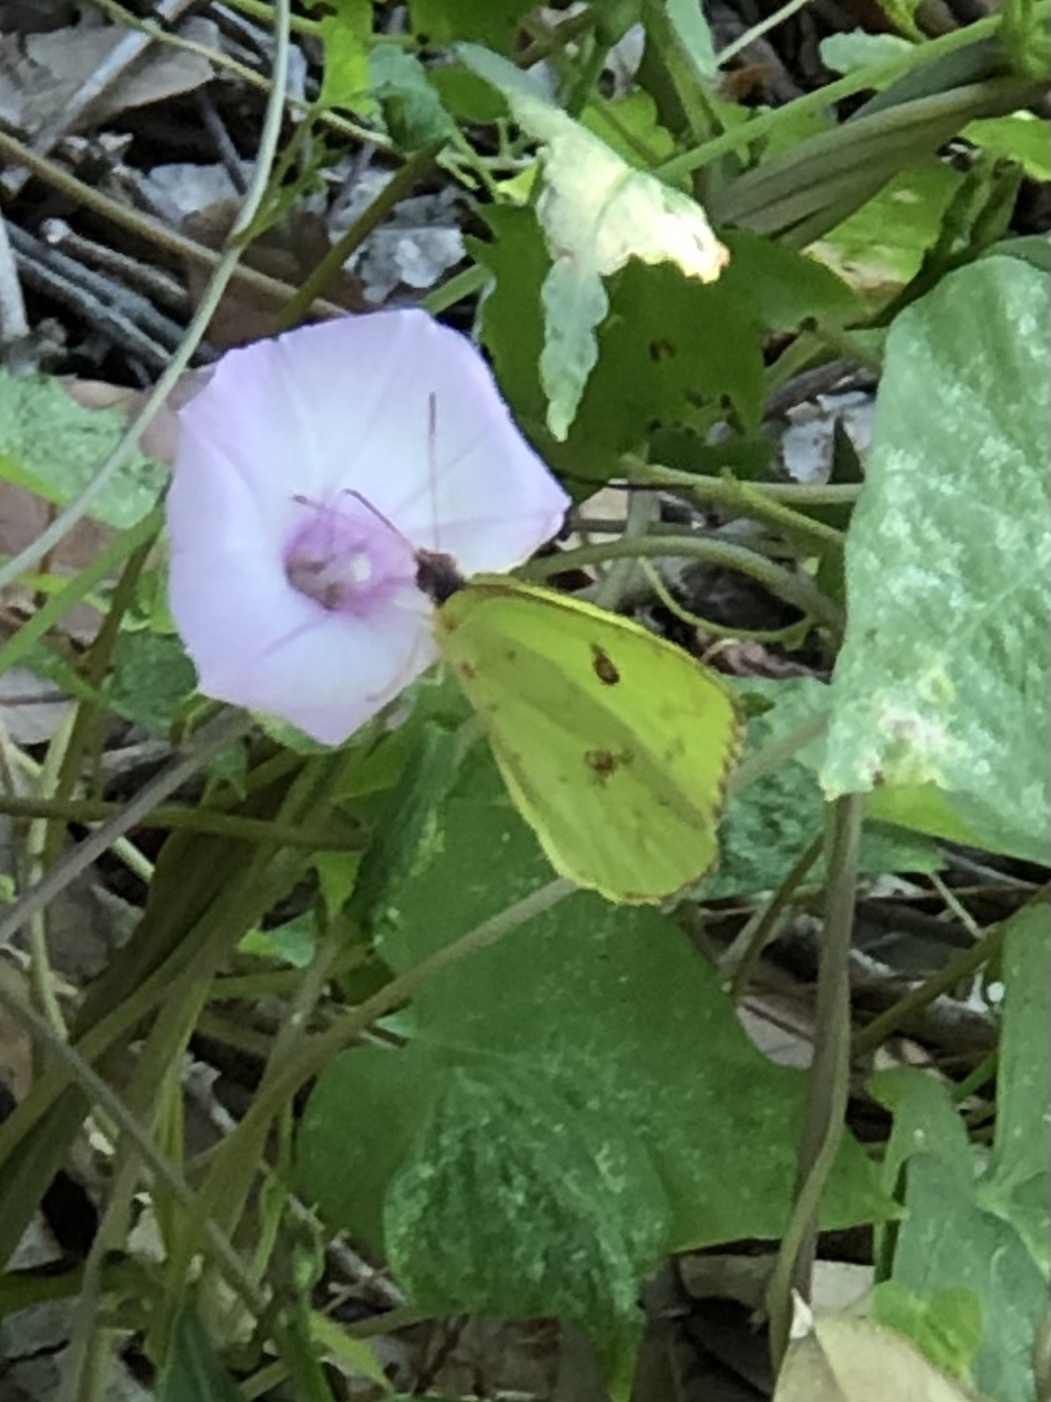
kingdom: Animalia
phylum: Arthropoda
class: Insecta
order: Lepidoptera
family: Pieridae
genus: Phoebis
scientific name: Phoebis sennae
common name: Cloudless sulphur
